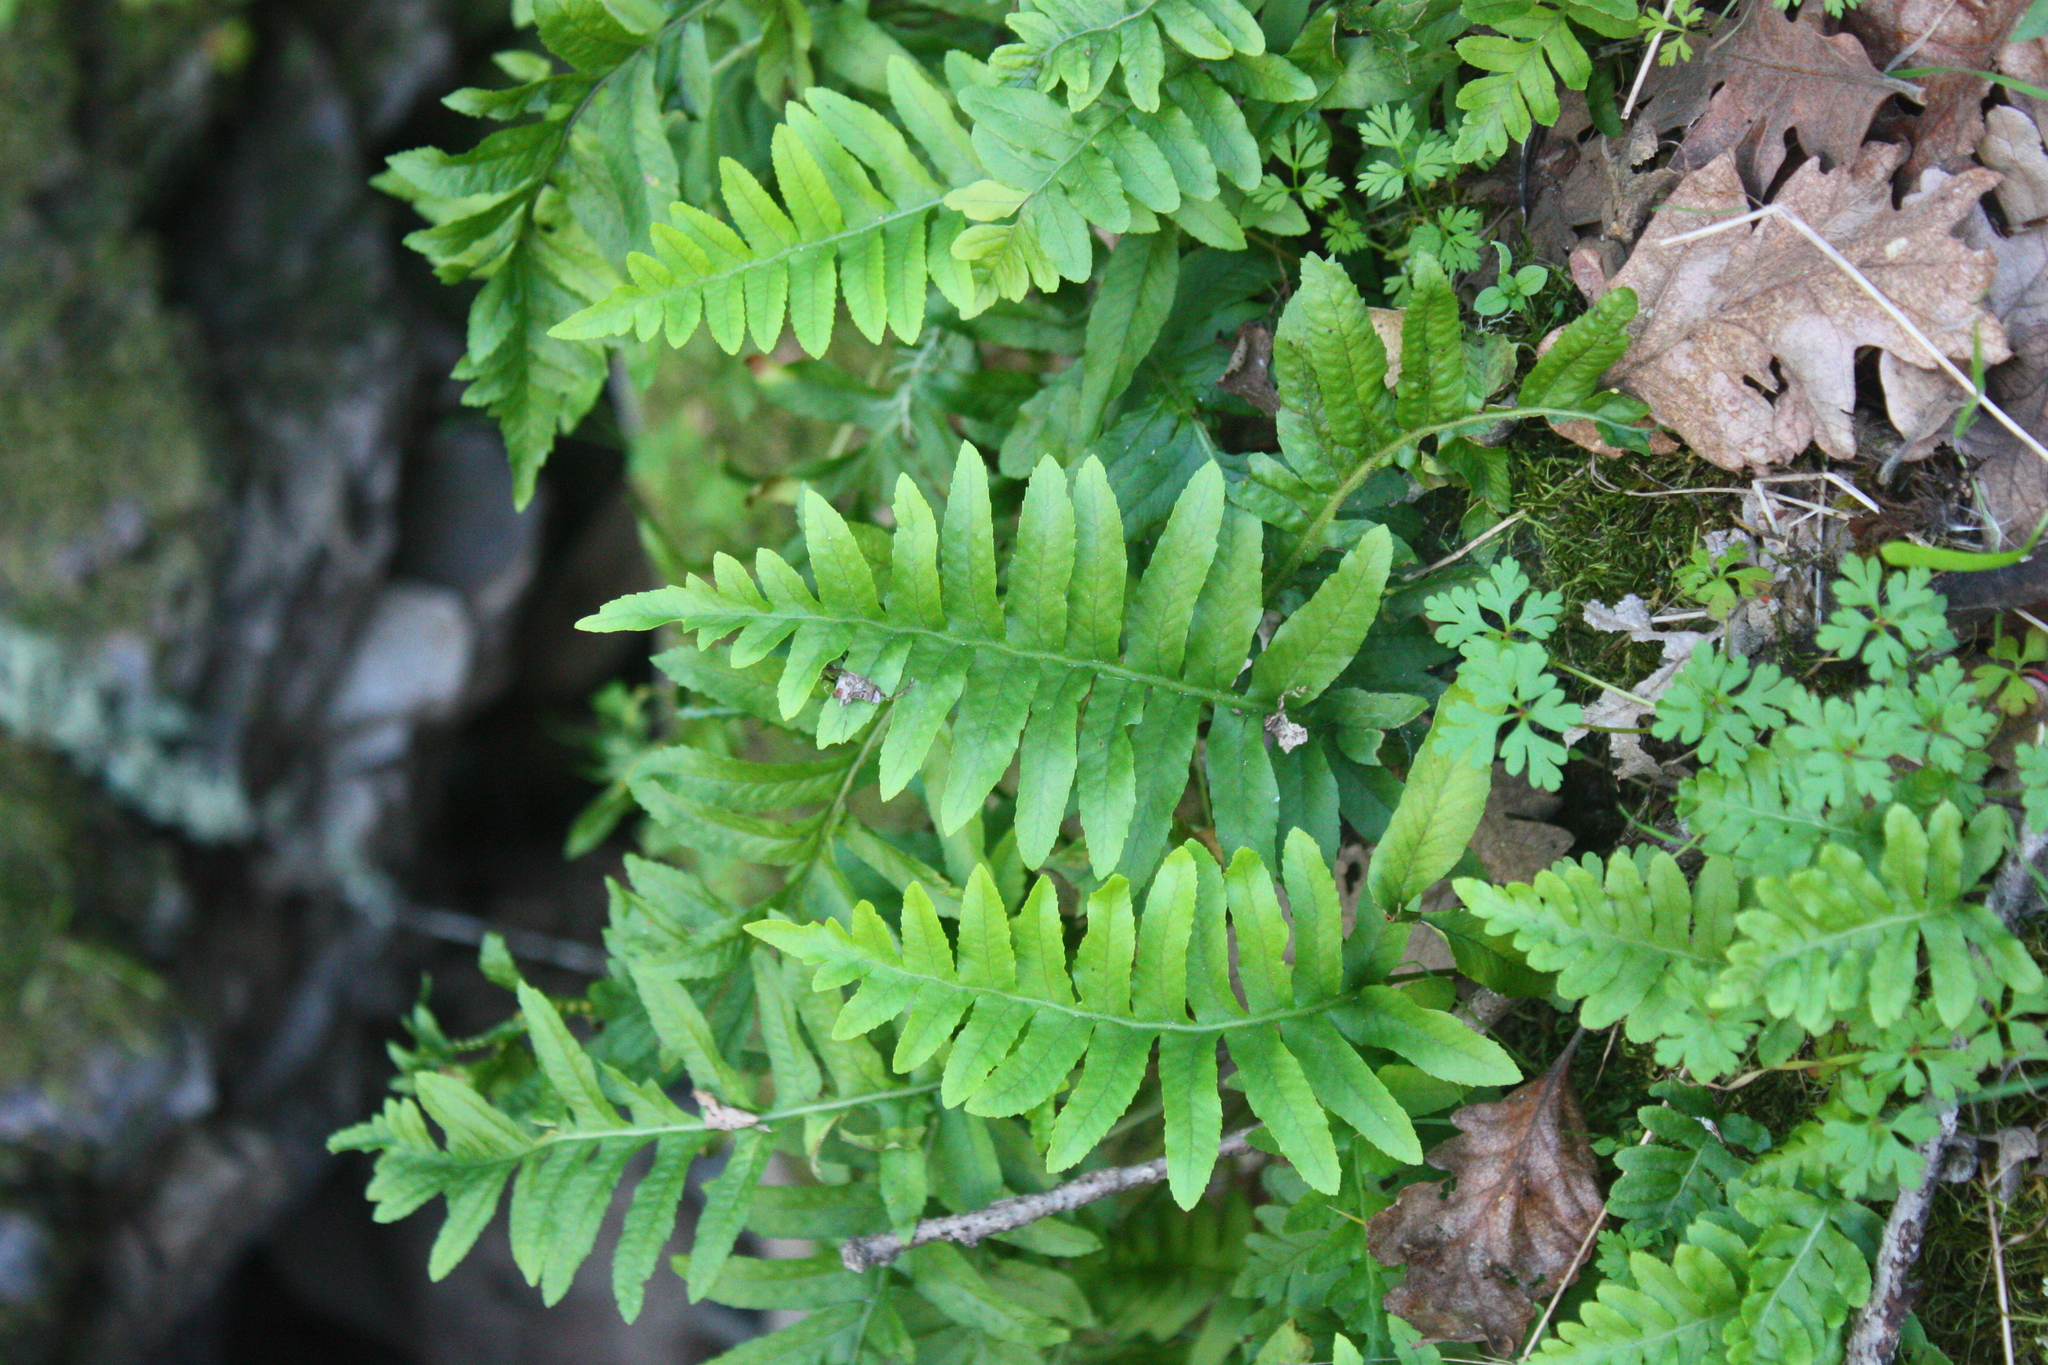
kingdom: Plantae
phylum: Tracheophyta
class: Polypodiopsida
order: Polypodiales
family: Polypodiaceae
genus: Polypodium
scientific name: Polypodium californicum
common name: California polypody
